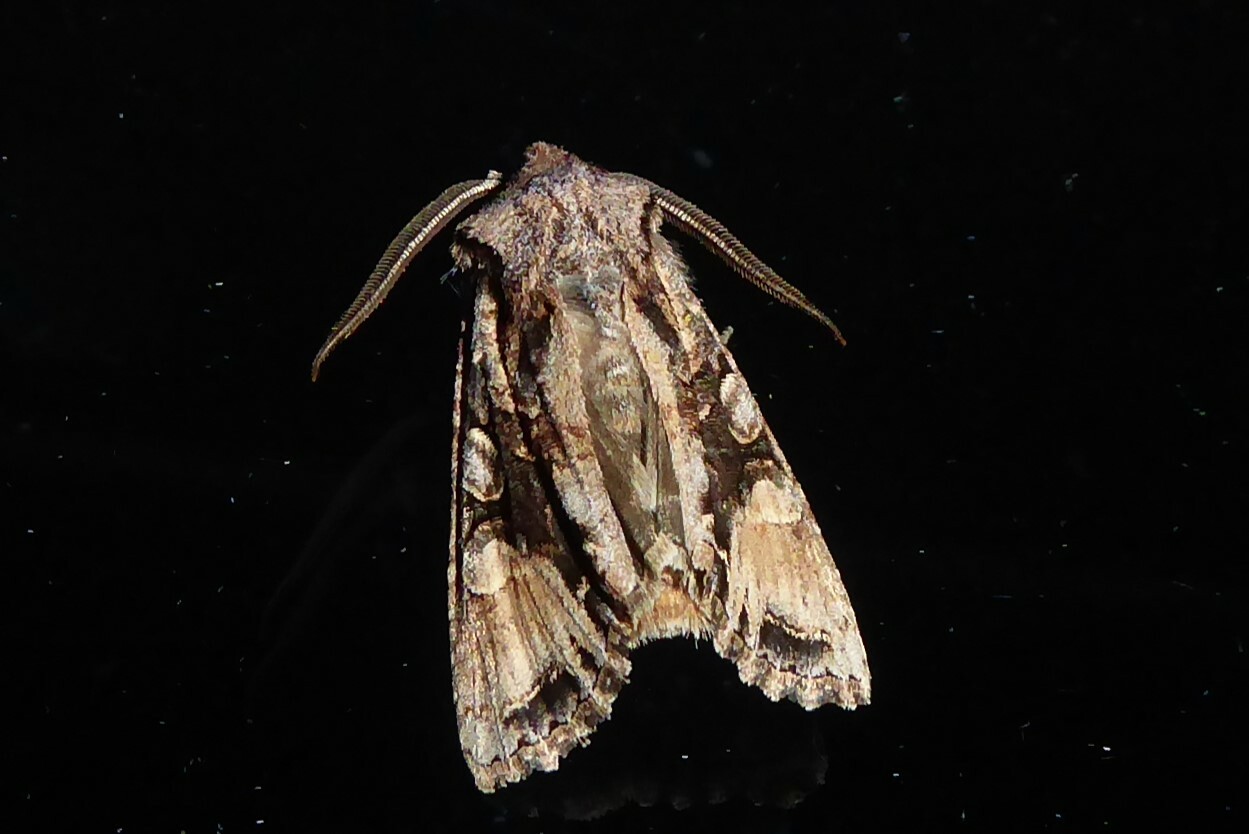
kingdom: Animalia
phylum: Arthropoda
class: Insecta
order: Lepidoptera
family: Noctuidae
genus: Ichneutica
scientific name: Ichneutica
